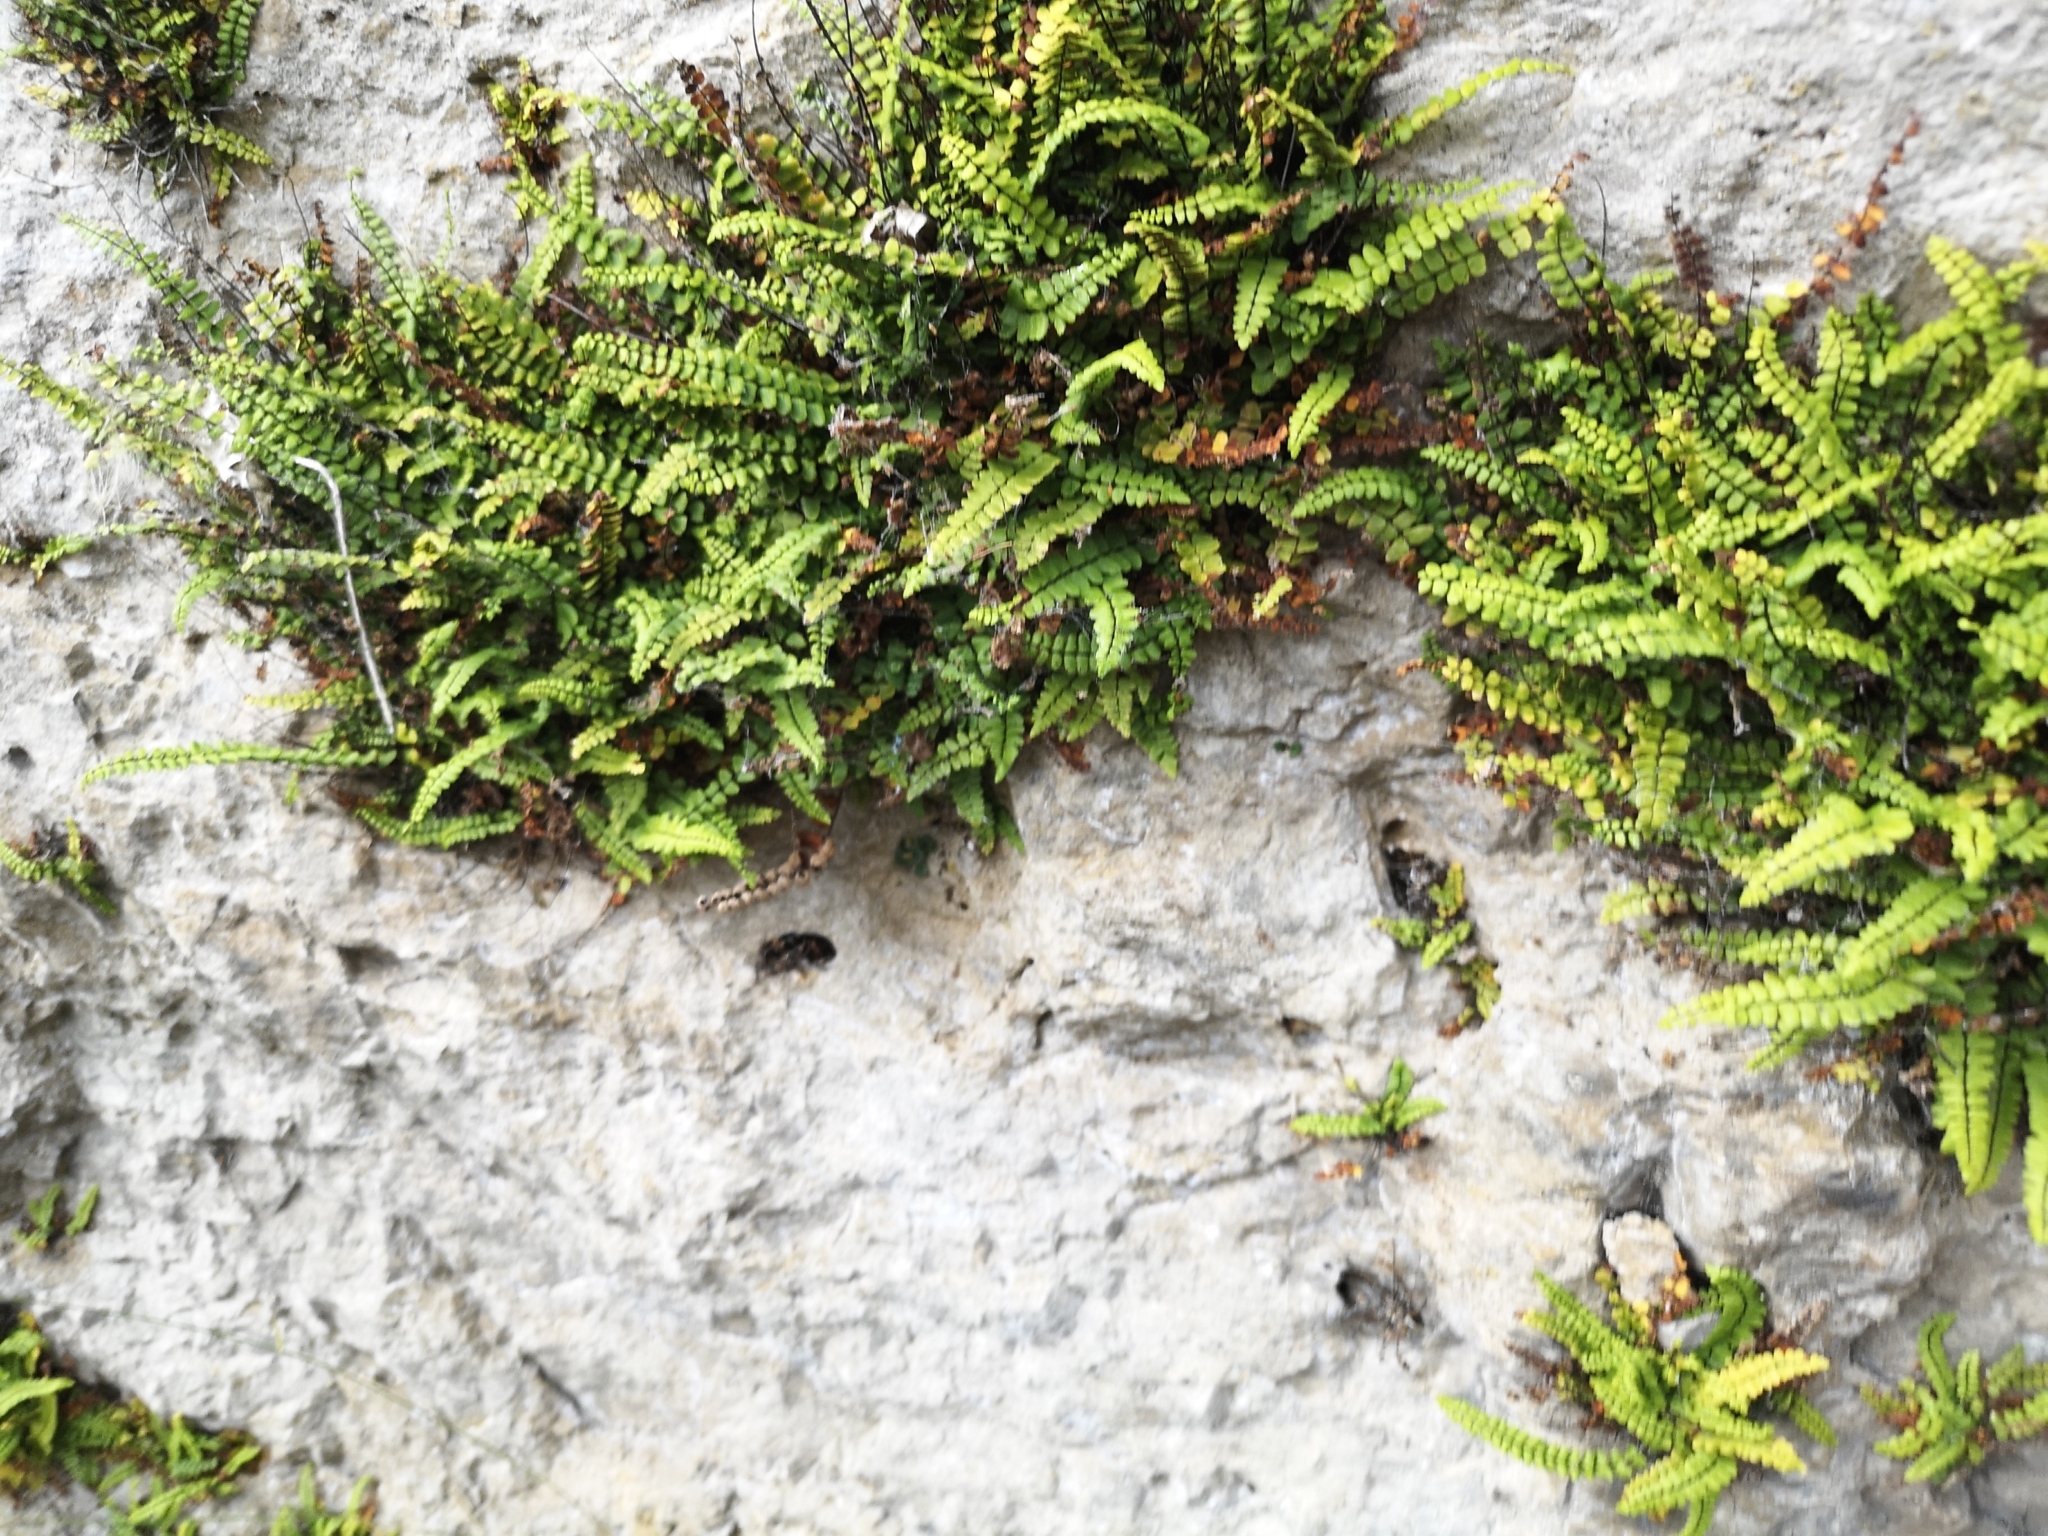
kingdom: Plantae
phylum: Tracheophyta
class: Polypodiopsida
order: Polypodiales
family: Aspleniaceae
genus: Asplenium
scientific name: Asplenium trichomanes
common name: Maidenhair spleenwort
